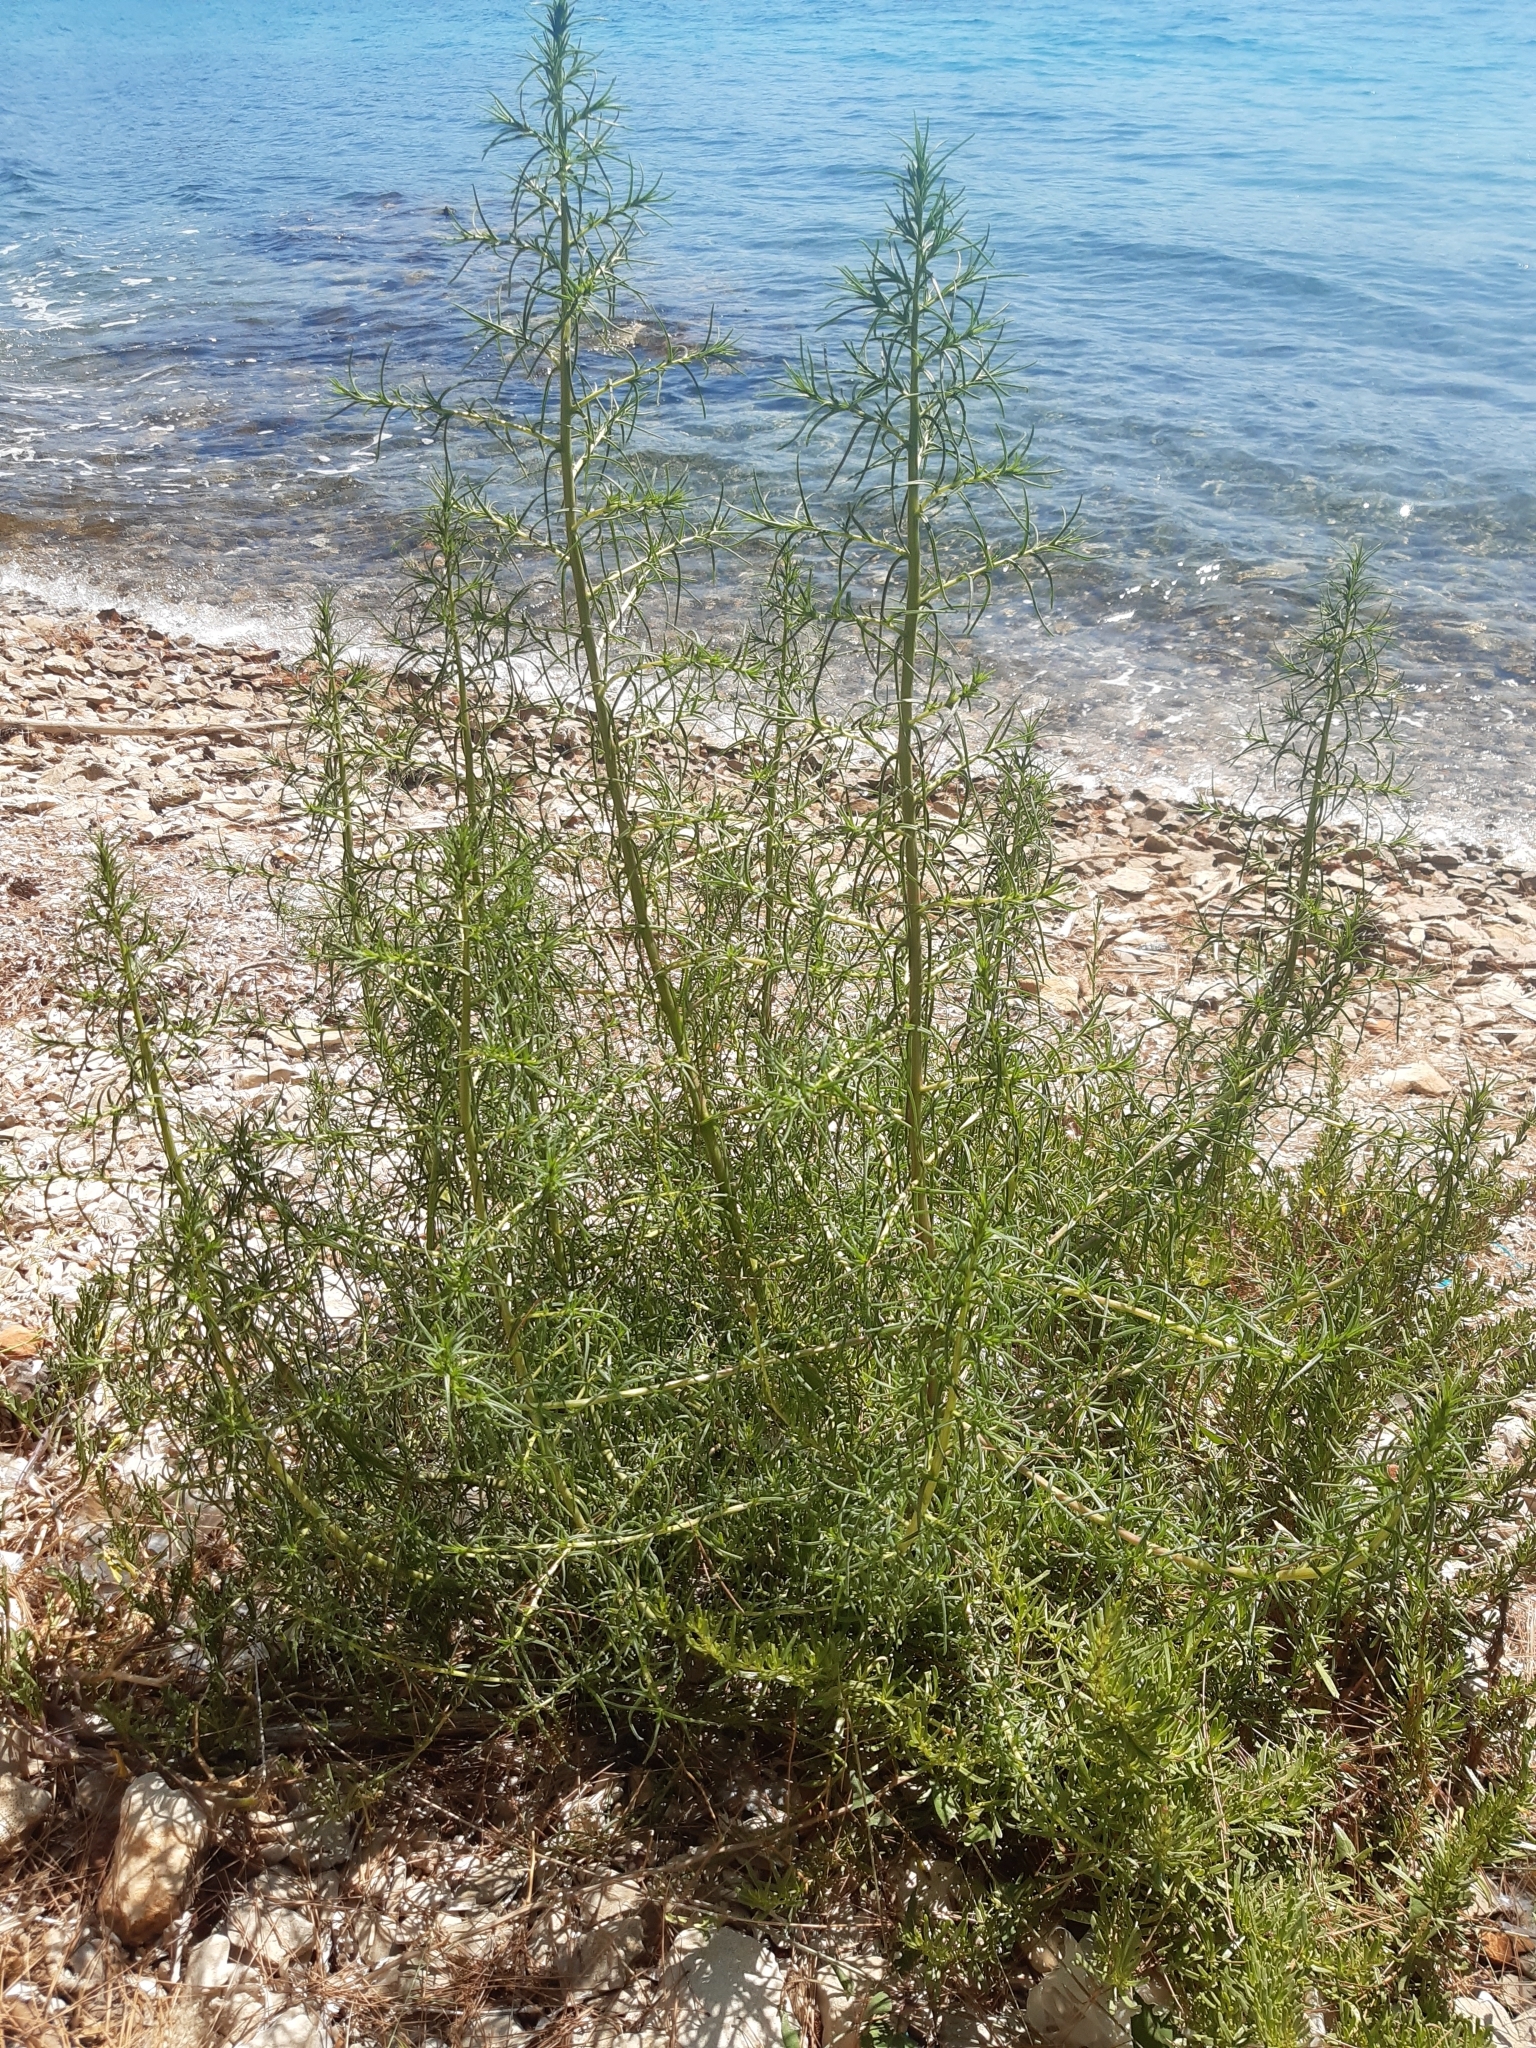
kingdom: Plantae
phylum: Tracheophyta
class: Magnoliopsida
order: Caryophyllales
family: Amaranthaceae
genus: Salsola
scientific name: Salsola soda
